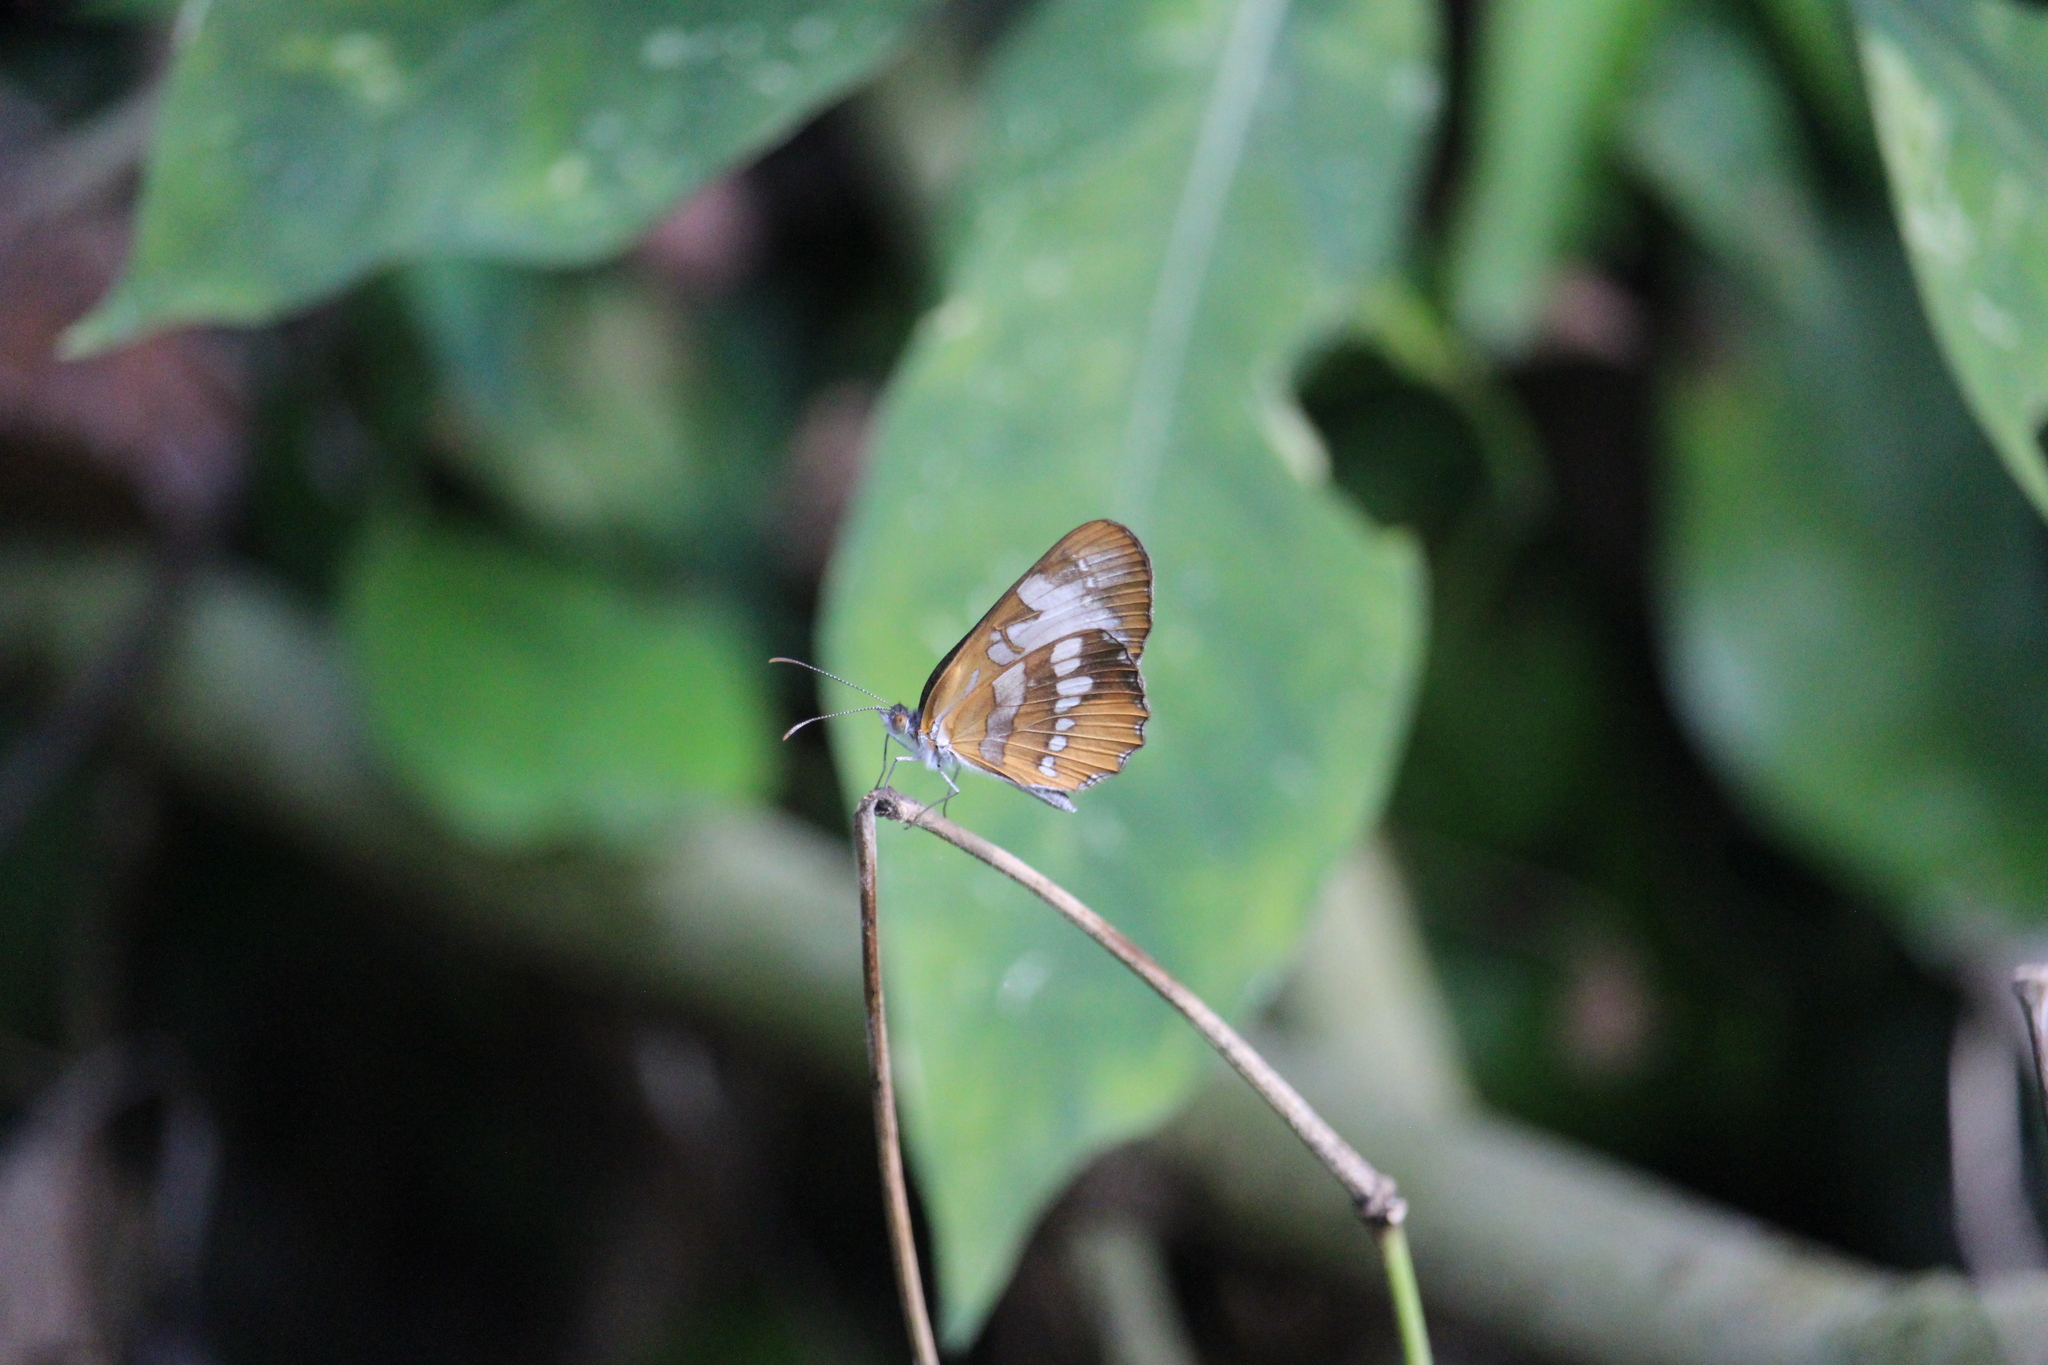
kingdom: Animalia
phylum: Arthropoda
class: Insecta
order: Lepidoptera
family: Nymphalidae
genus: Mestra
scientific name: Mestra amymone
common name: Common mestra
